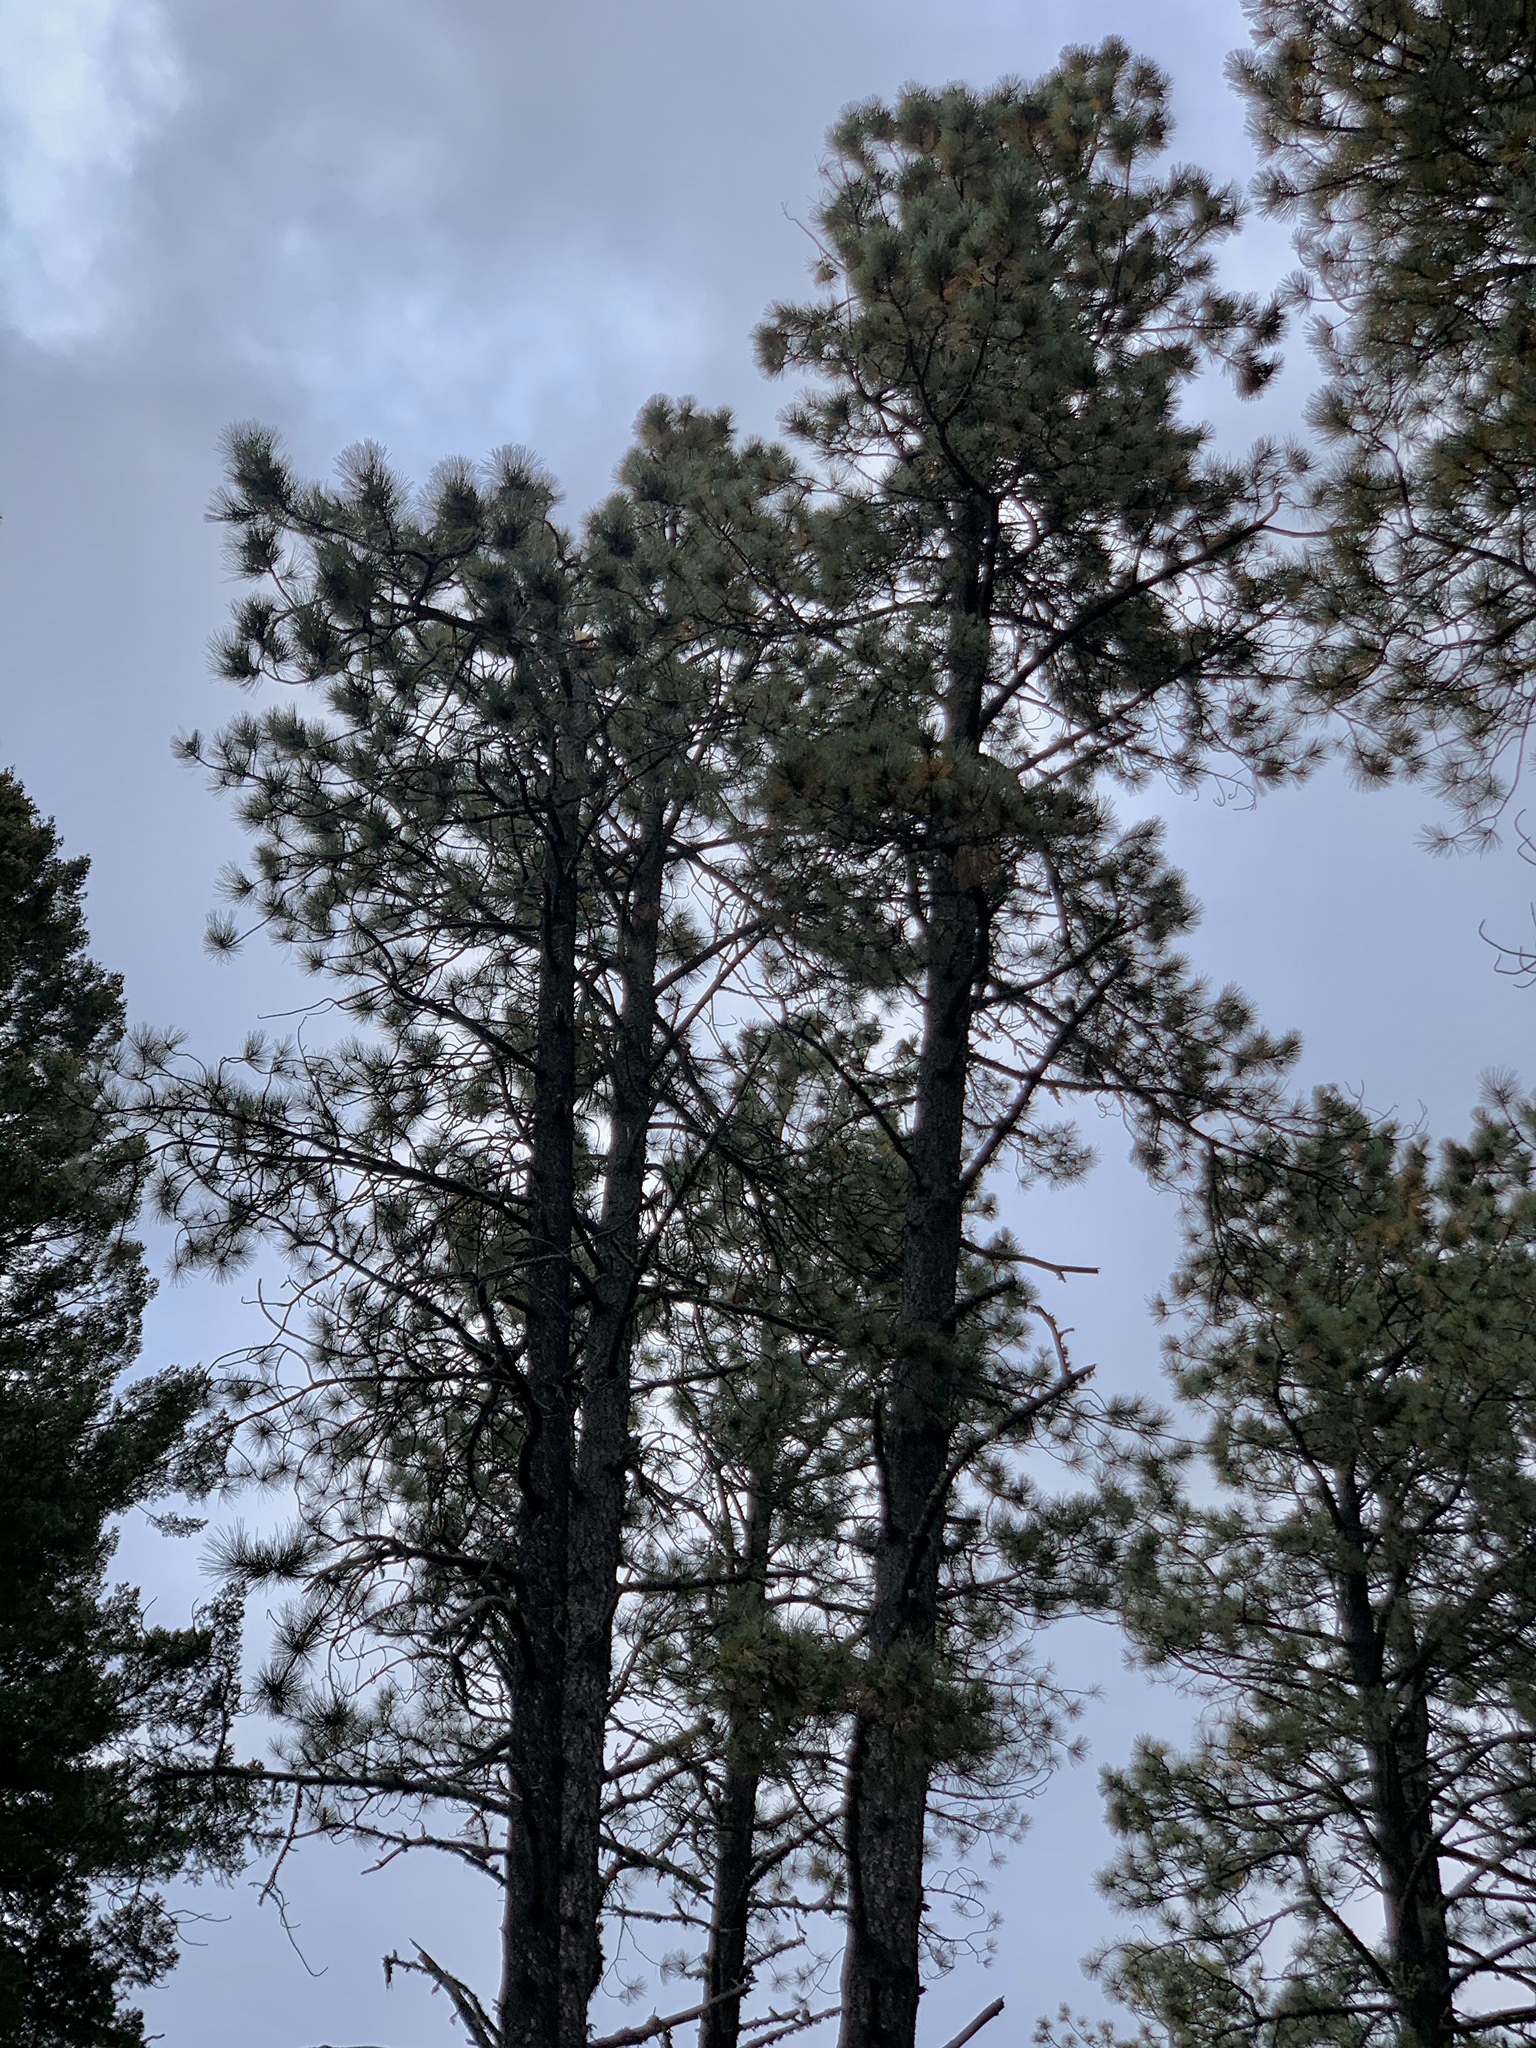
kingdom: Plantae
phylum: Tracheophyta
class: Pinopsida
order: Pinales
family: Pinaceae
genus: Pinus
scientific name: Pinus ponderosa
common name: Western yellow-pine
